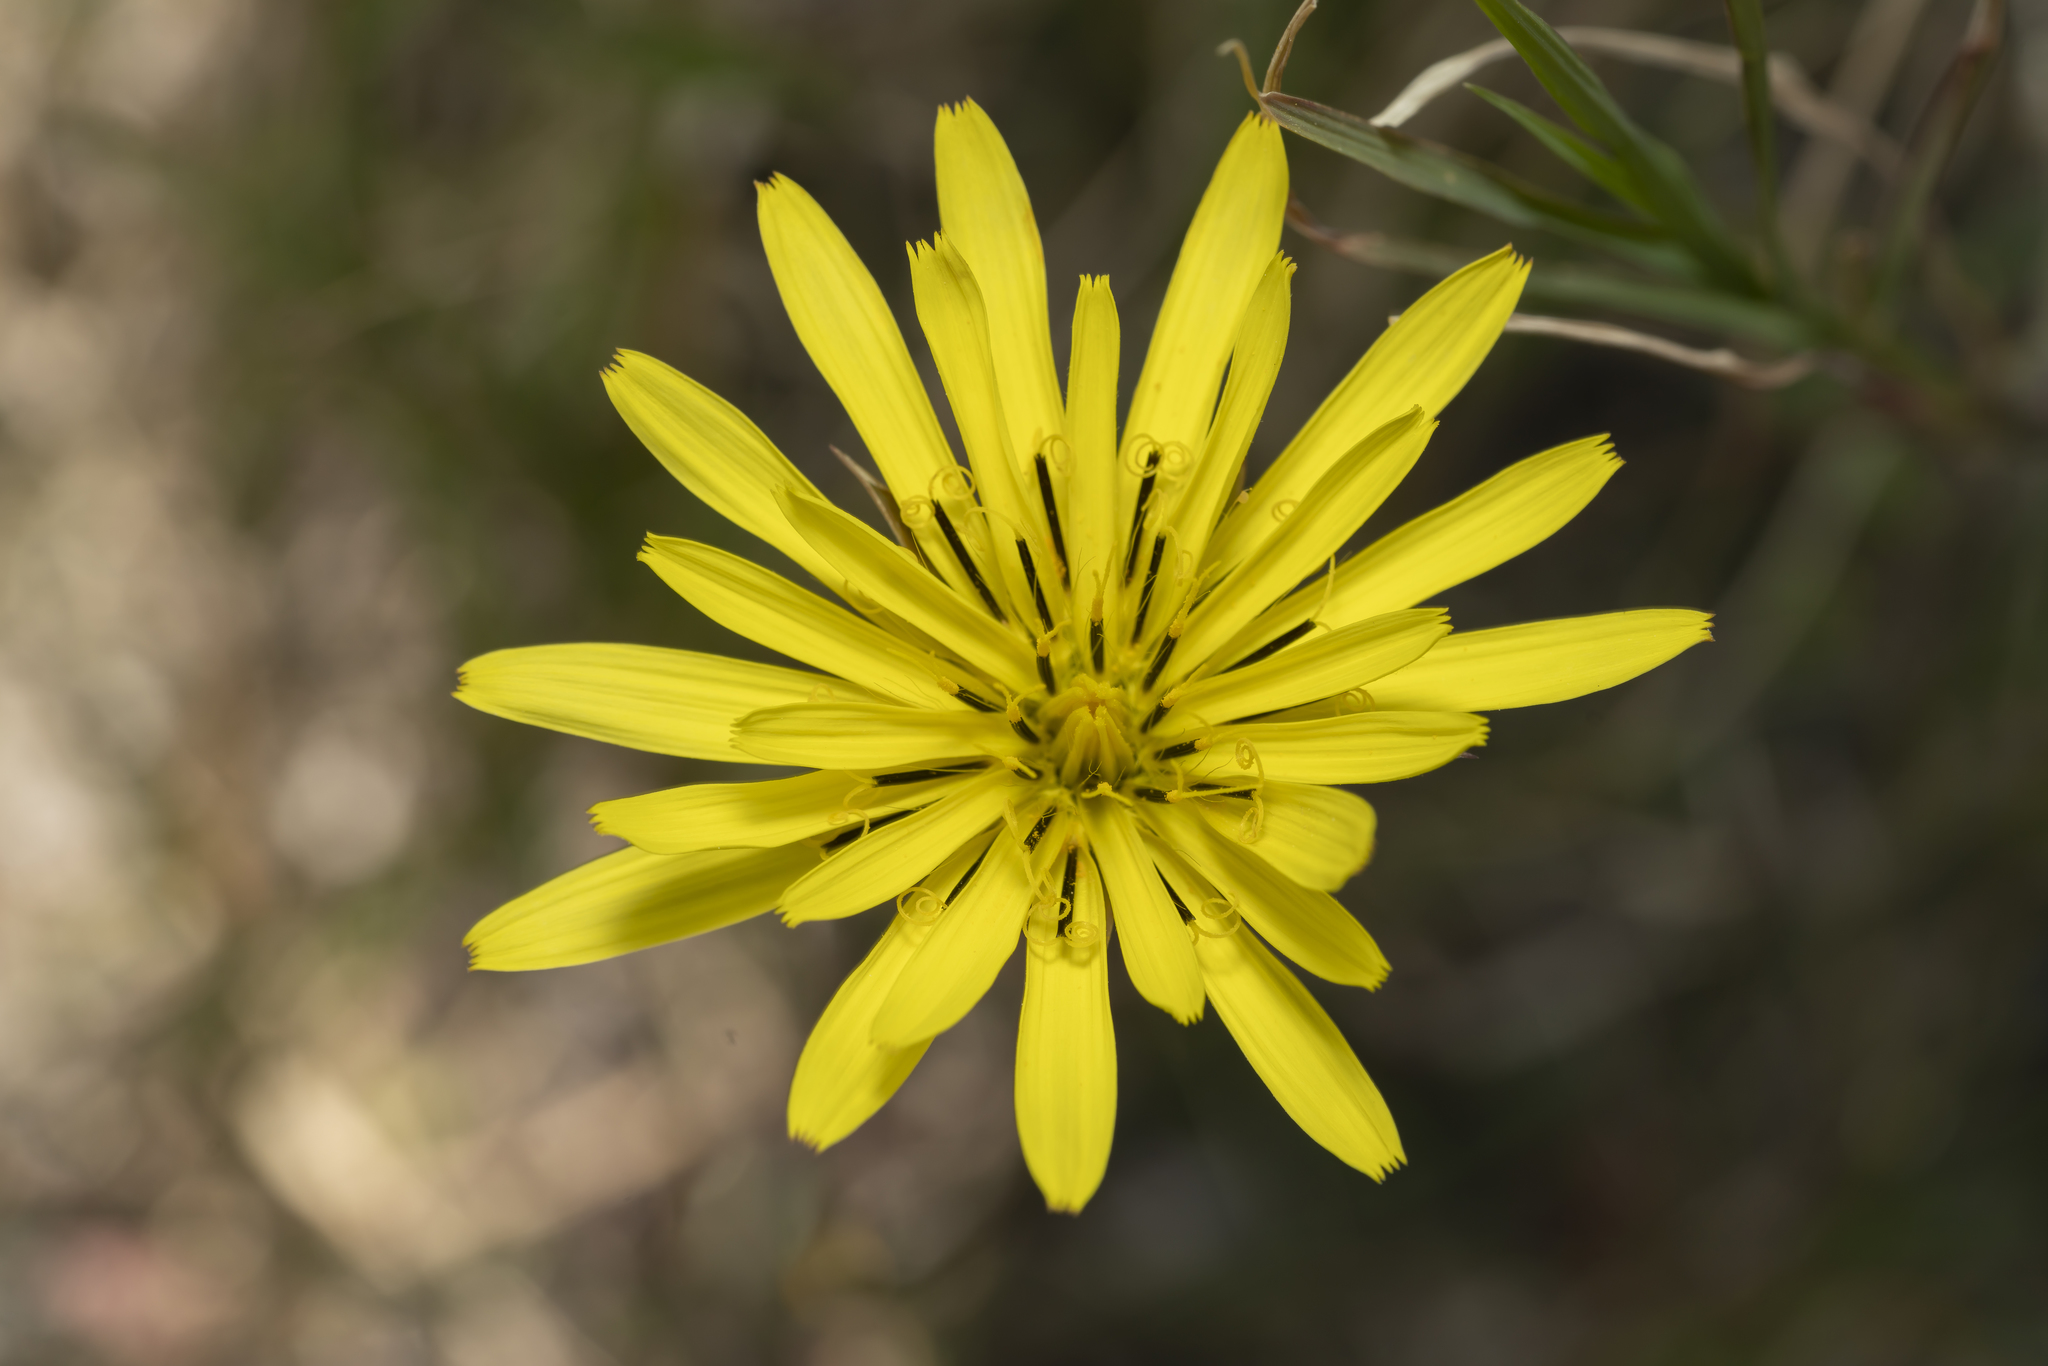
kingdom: Plantae
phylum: Tracheophyta
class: Magnoliopsida
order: Asterales
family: Asteraceae
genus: Candollea
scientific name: Candollea elata
